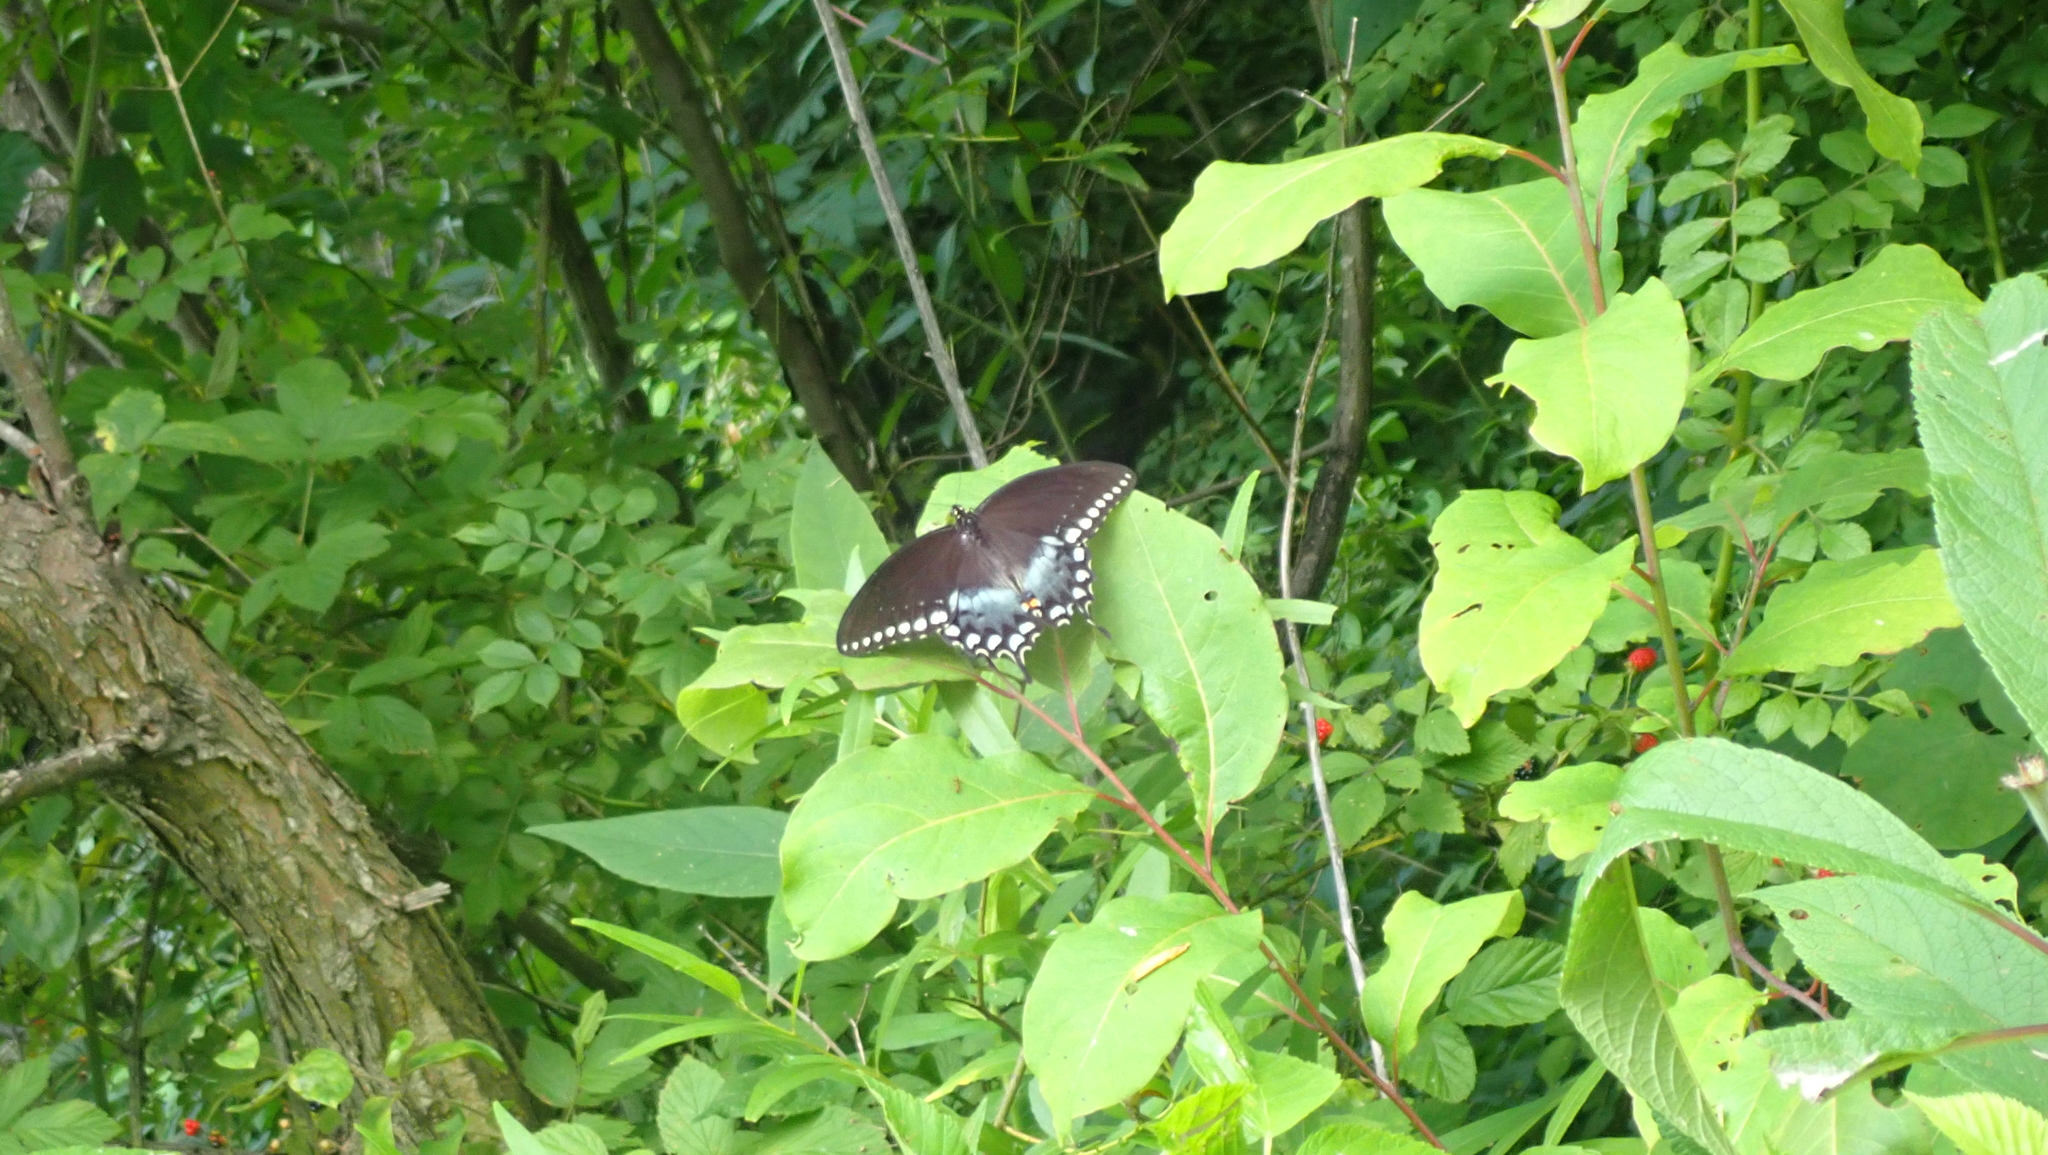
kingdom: Animalia
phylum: Arthropoda
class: Insecta
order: Lepidoptera
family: Papilionidae
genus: Papilio
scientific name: Papilio troilus
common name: Spicebush swallowtail
